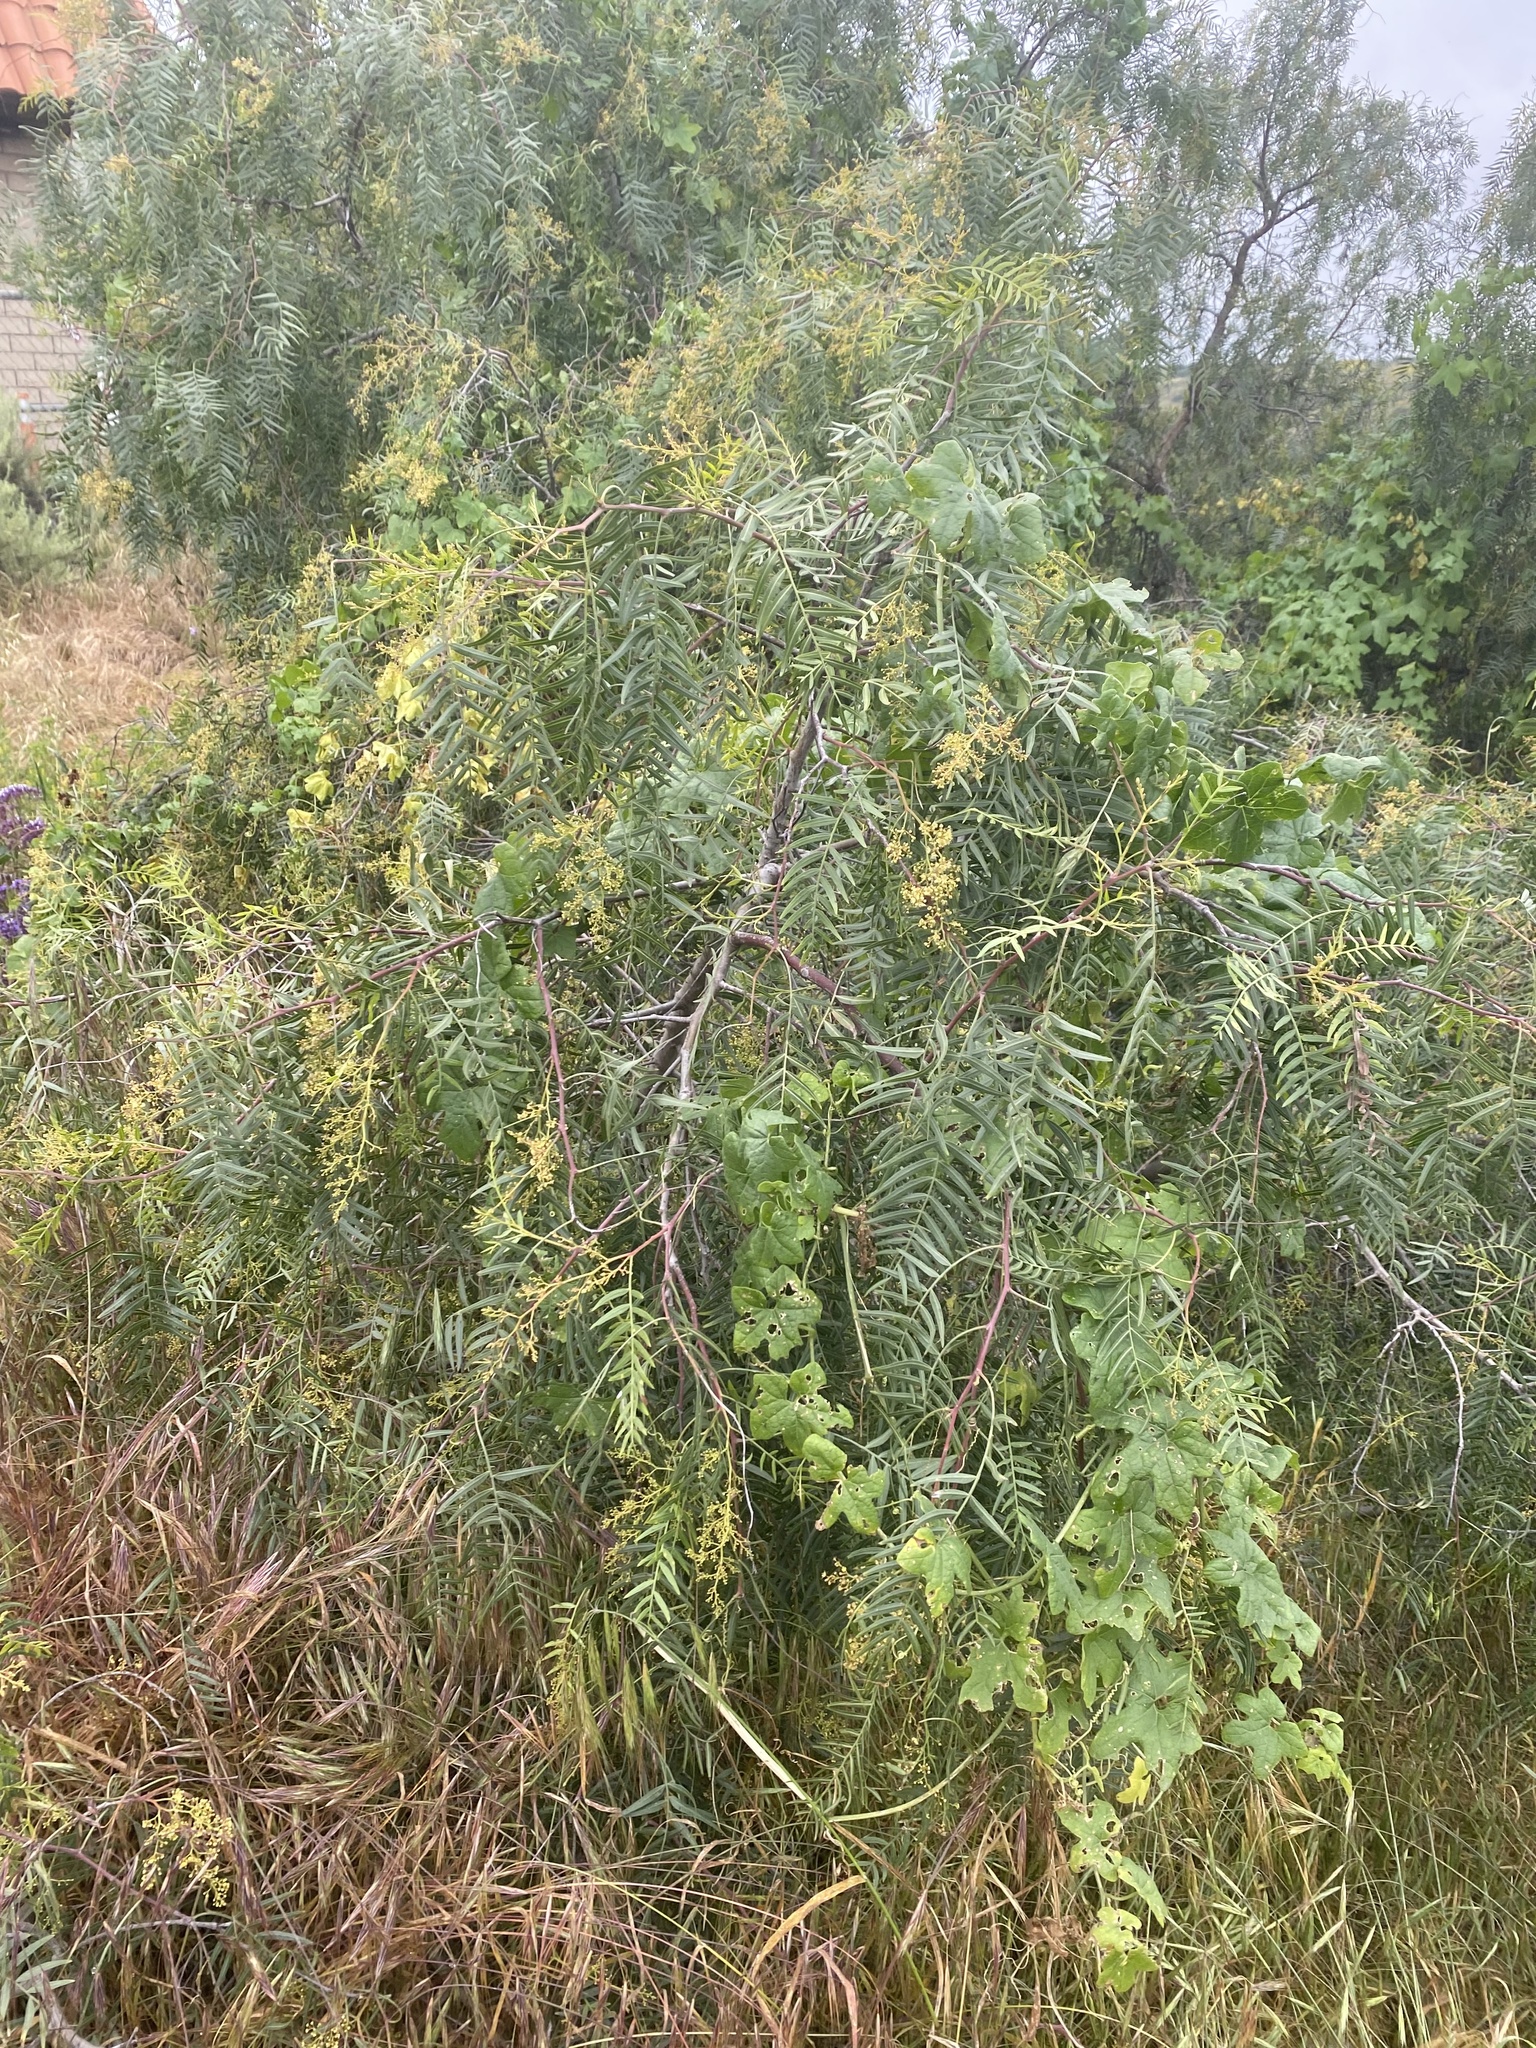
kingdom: Plantae
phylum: Tracheophyta
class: Magnoliopsida
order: Cucurbitales
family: Cucurbitaceae
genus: Marah
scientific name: Marah macrocarpa
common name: Cucamonga manroot
